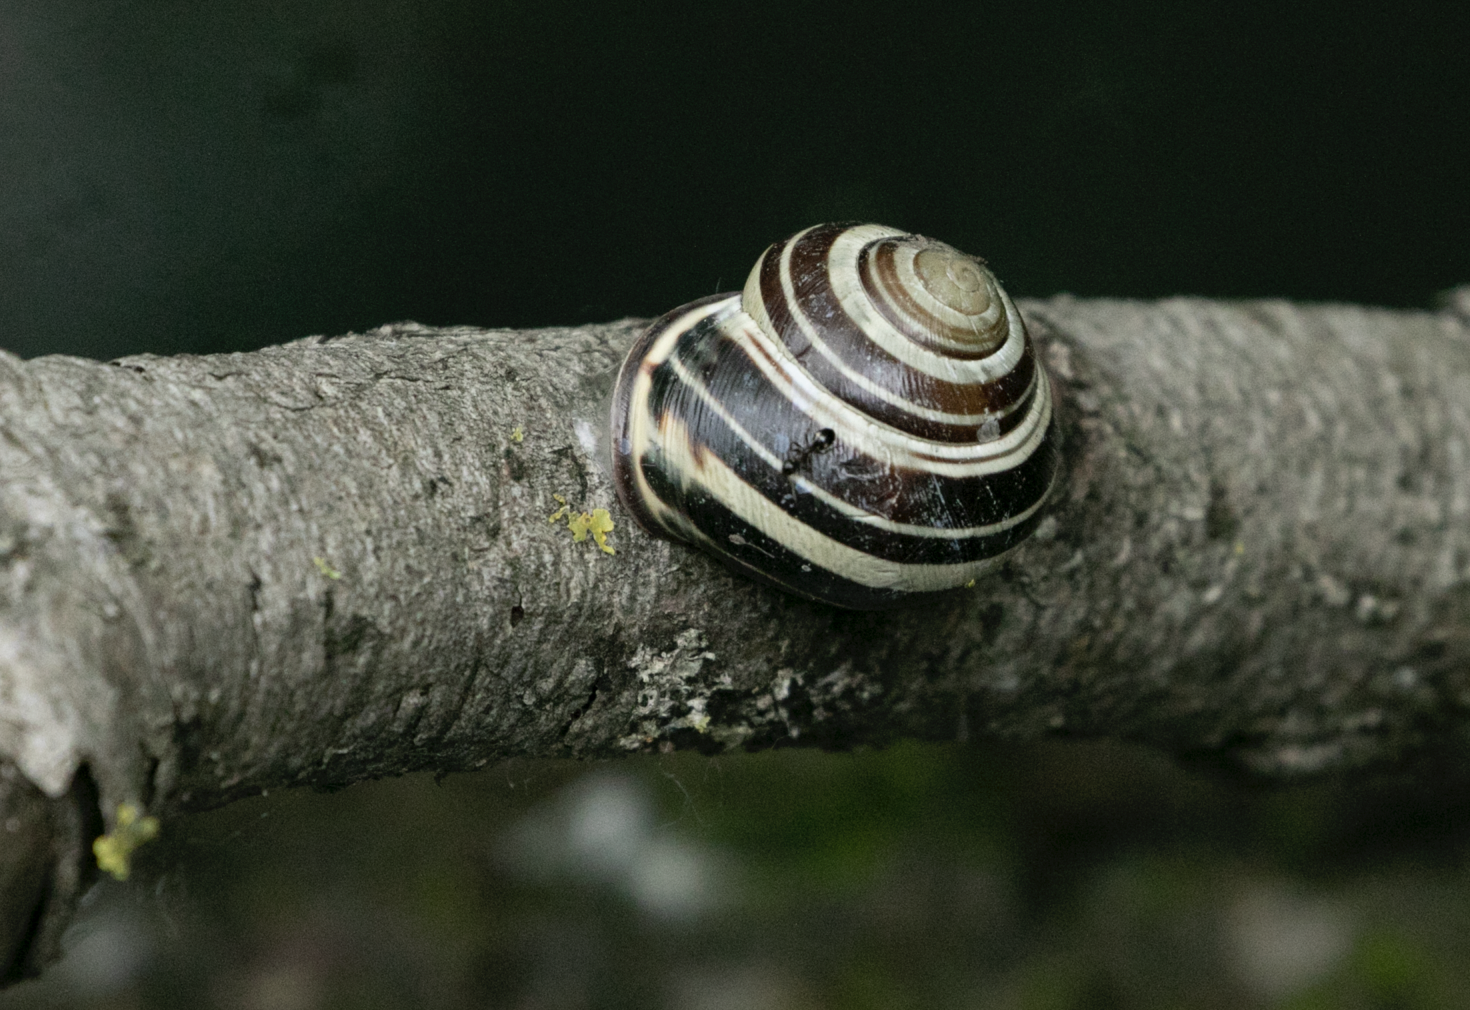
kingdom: Animalia
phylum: Mollusca
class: Gastropoda
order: Stylommatophora
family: Helicidae
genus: Cepaea
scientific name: Cepaea nemoralis
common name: Grovesnail
